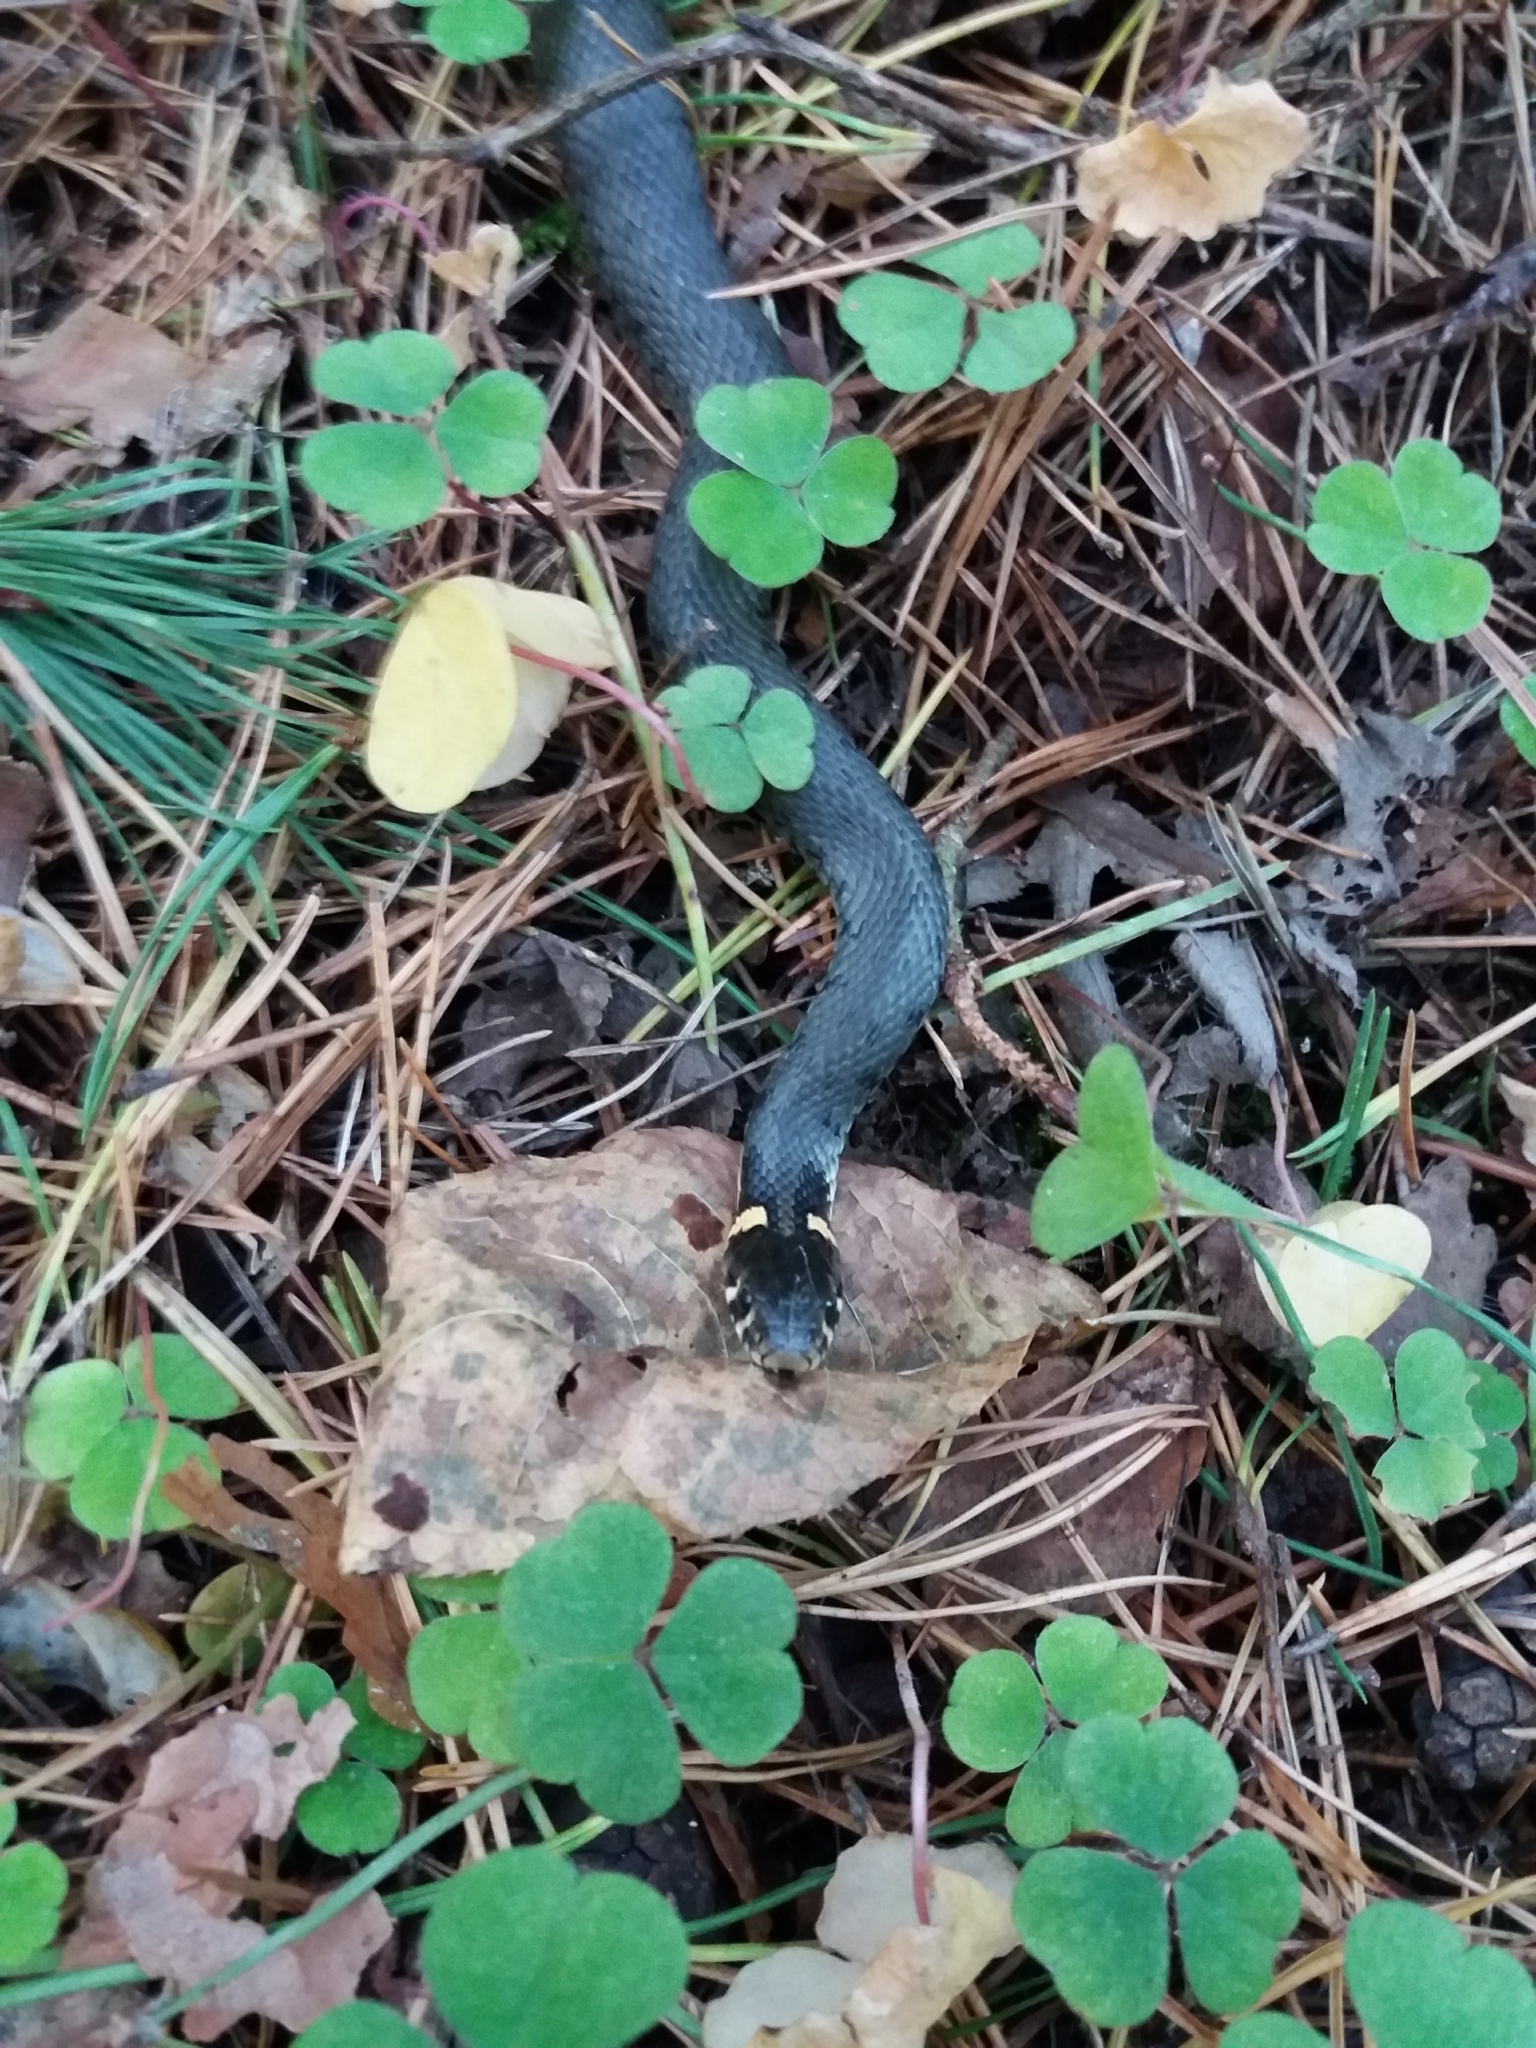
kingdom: Animalia
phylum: Chordata
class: Squamata
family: Colubridae
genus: Natrix
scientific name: Natrix natrix
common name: Grass snake
